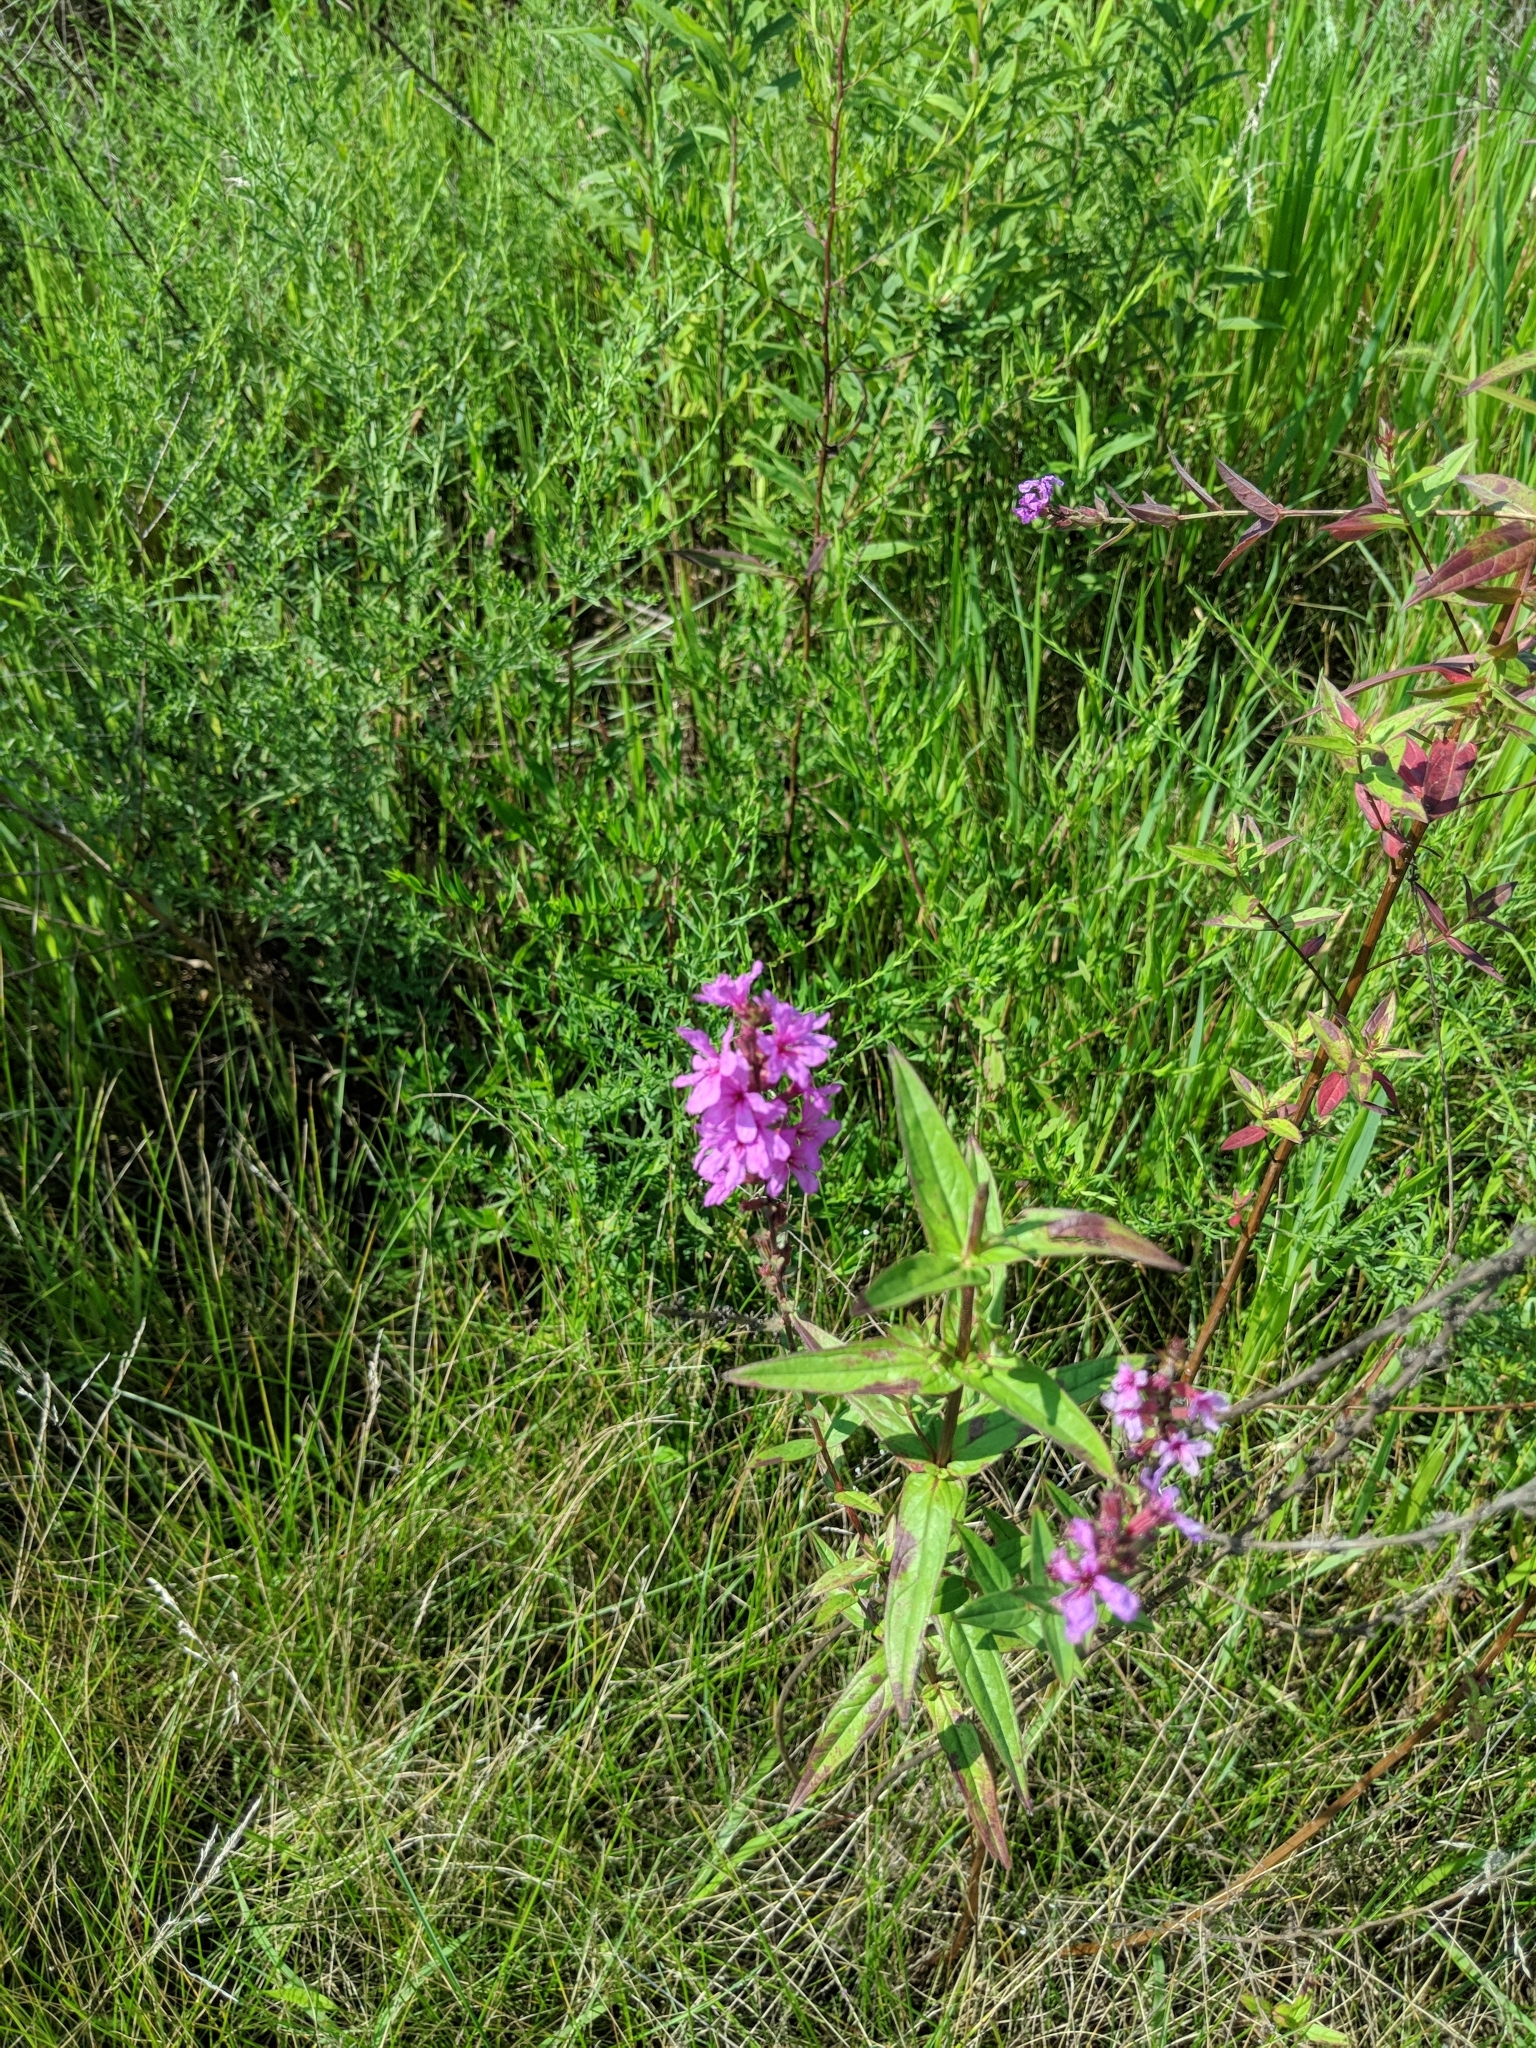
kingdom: Plantae
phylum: Tracheophyta
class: Magnoliopsida
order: Myrtales
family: Lythraceae
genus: Lythrum
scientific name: Lythrum salicaria
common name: Purple loosestrife
